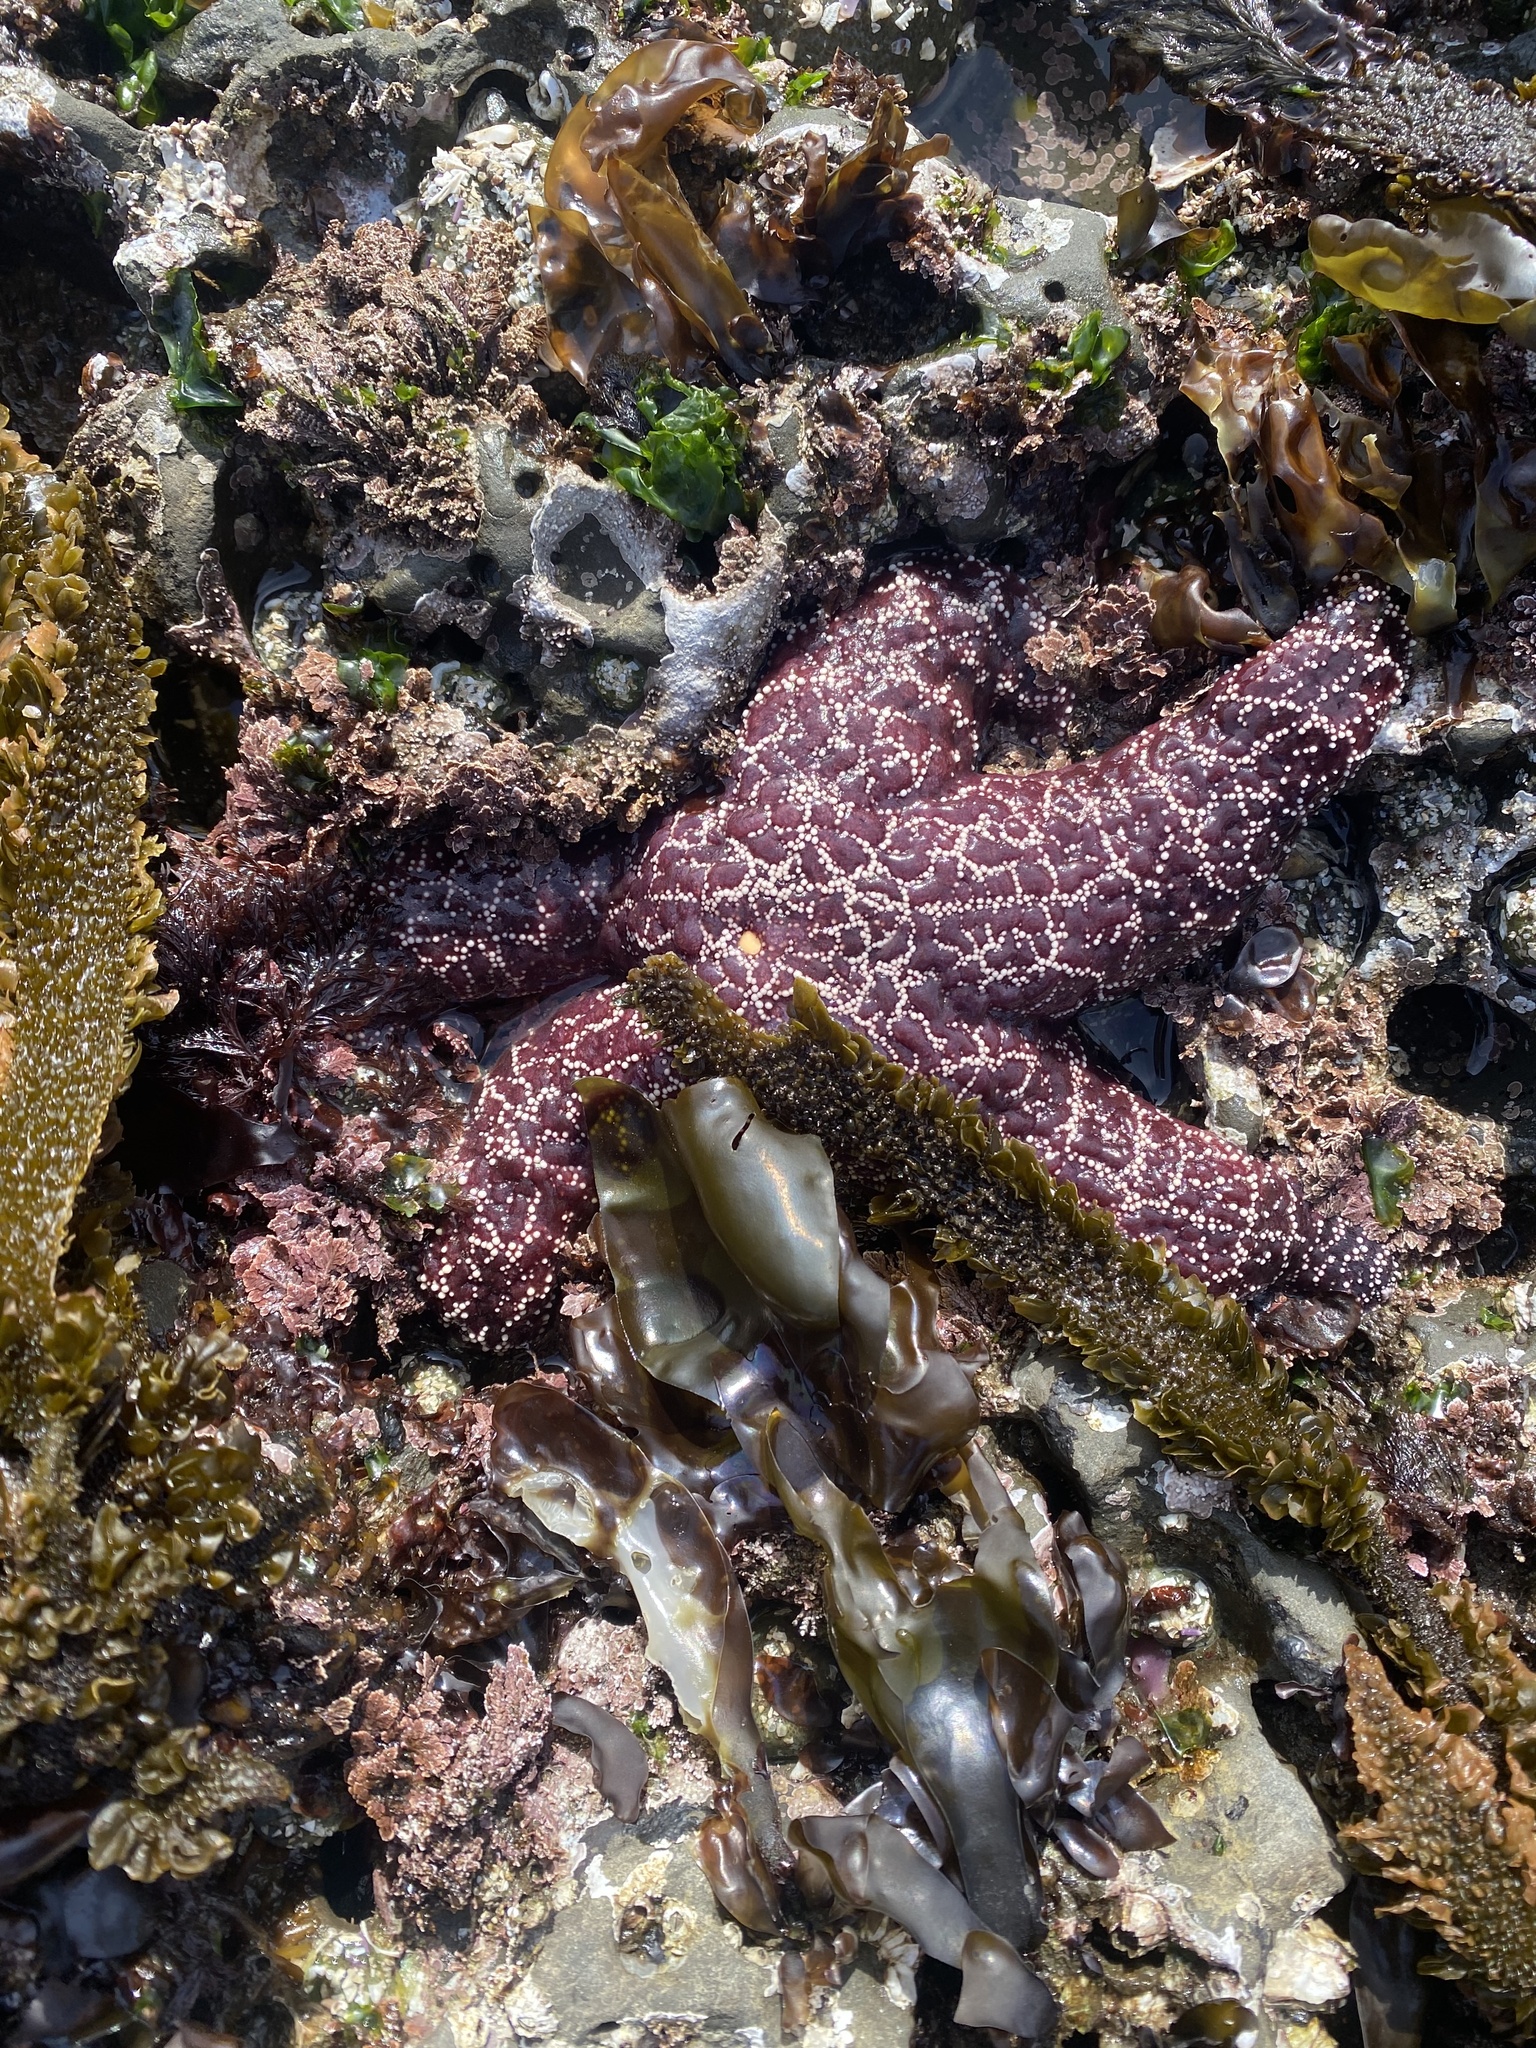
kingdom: Animalia
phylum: Echinodermata
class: Asteroidea
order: Forcipulatida
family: Asteriidae
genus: Pisaster
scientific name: Pisaster ochraceus
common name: Ochre stars
